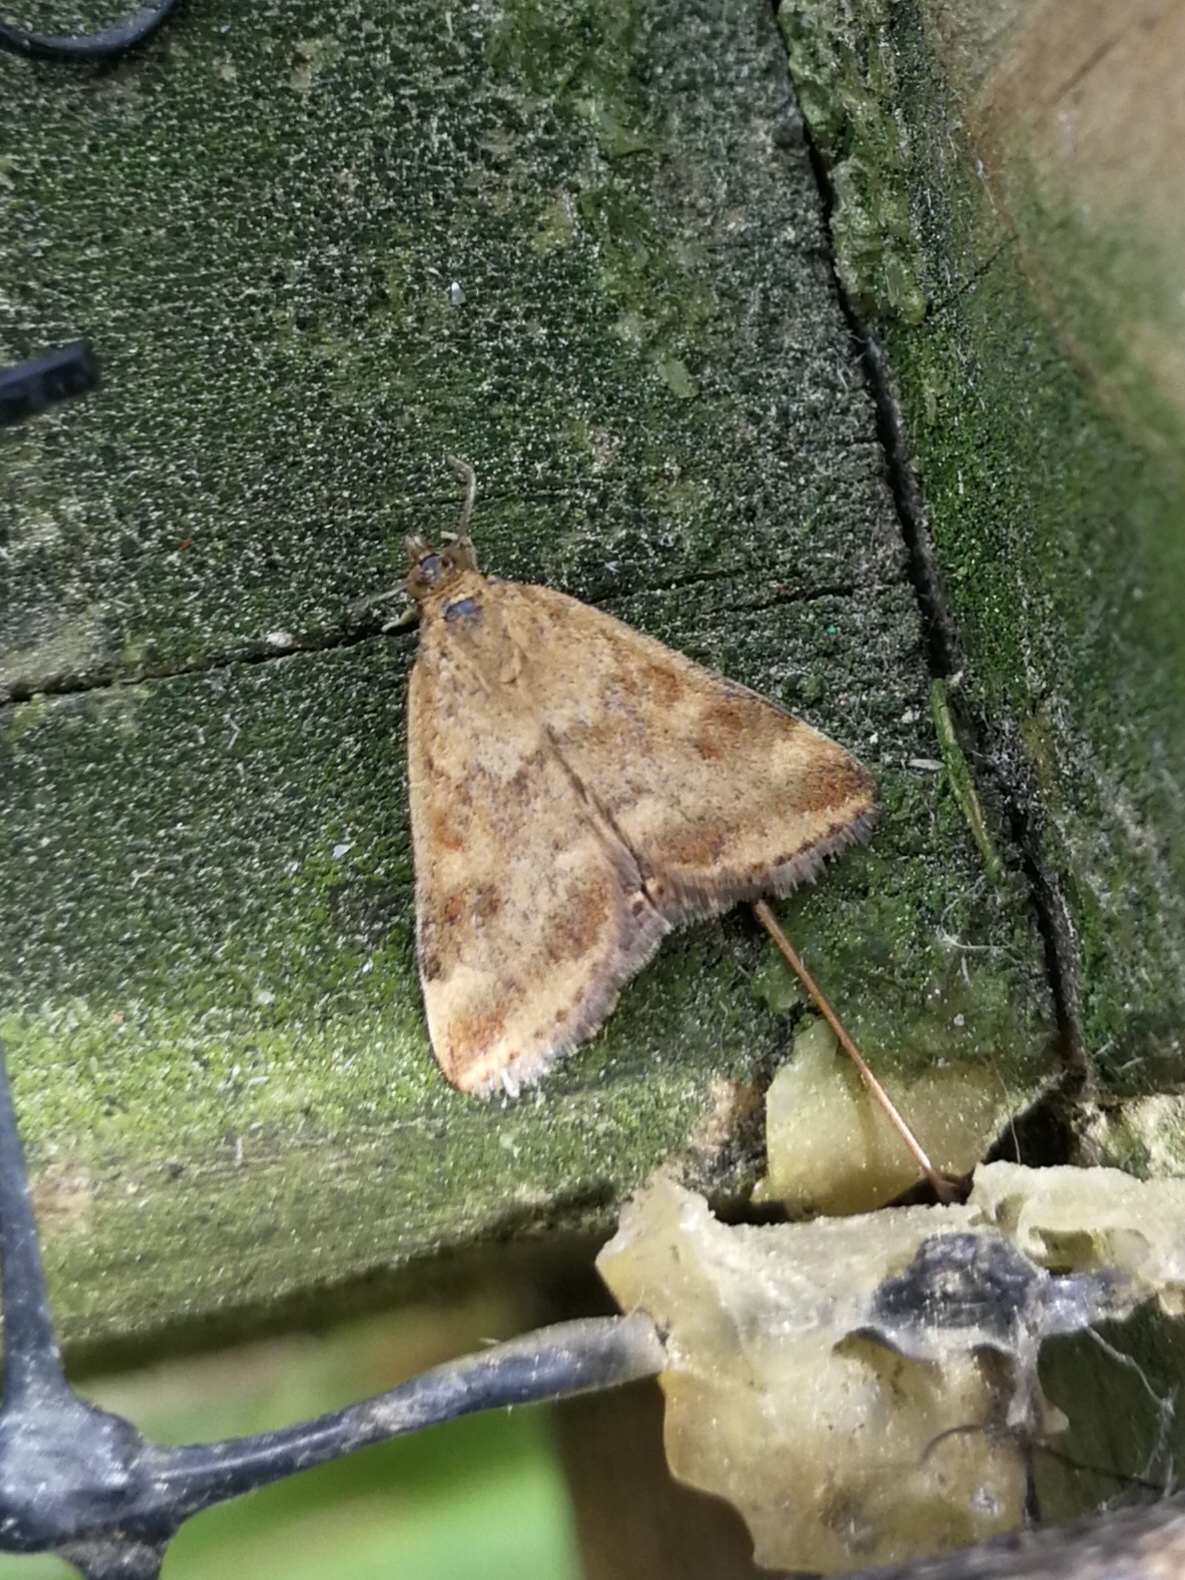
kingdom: Animalia
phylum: Arthropoda
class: Insecta
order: Lepidoptera
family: Crambidae
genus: Pyrausta
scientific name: Pyrausta despicata
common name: Straw-barred pearl
